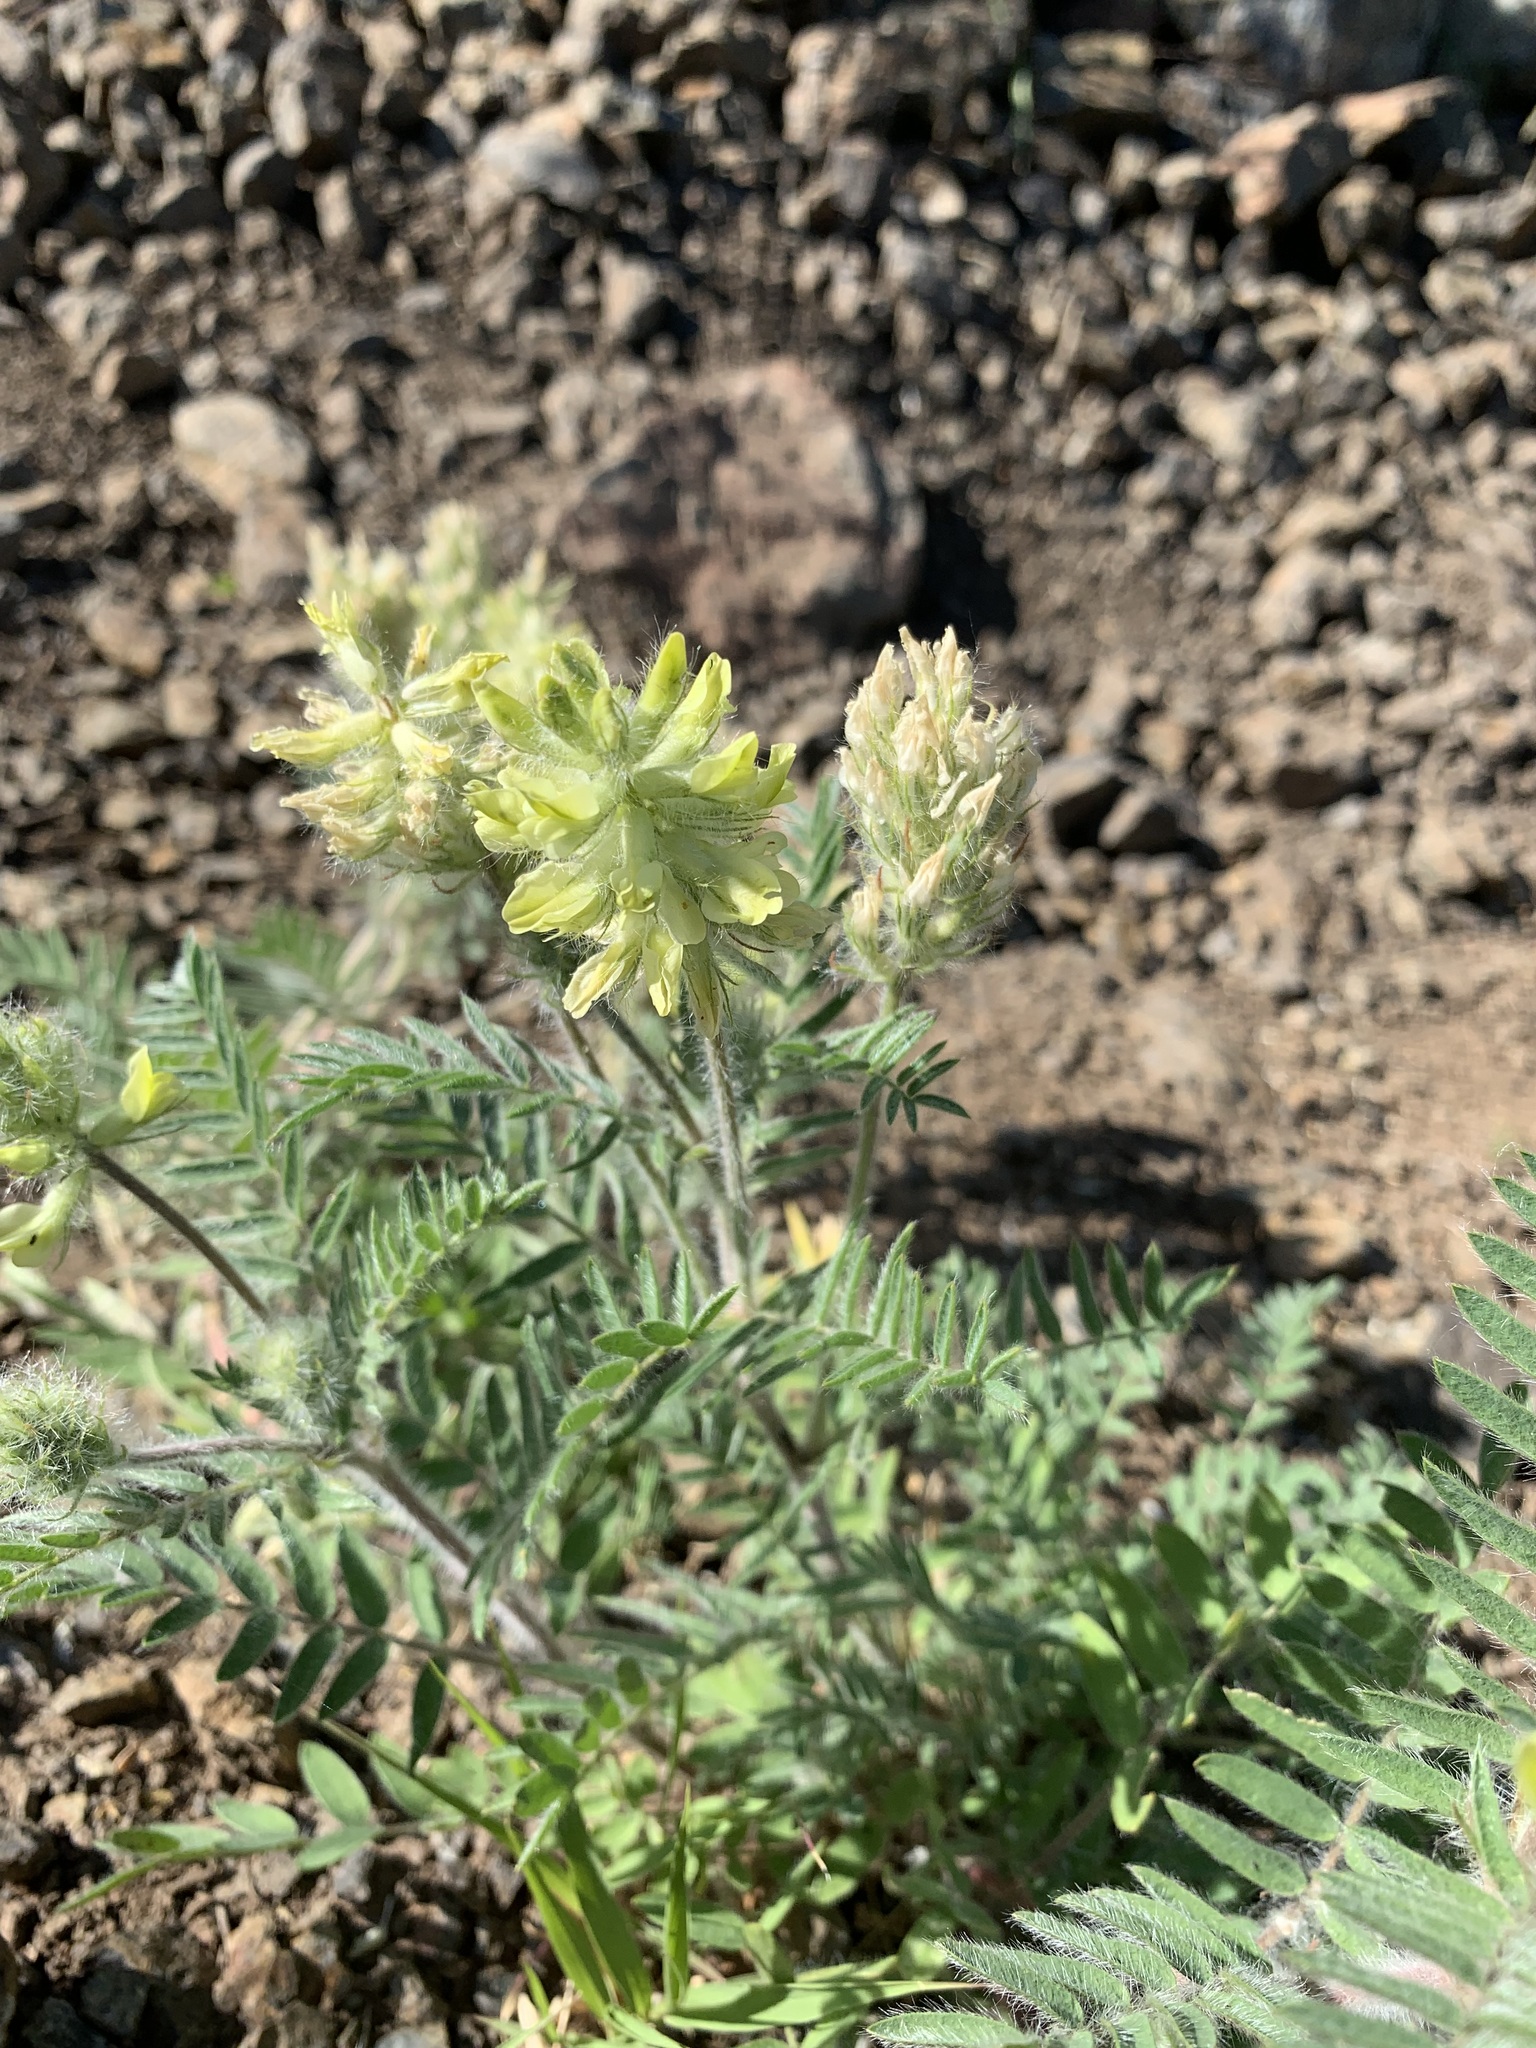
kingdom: Plantae
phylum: Tracheophyta
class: Magnoliopsida
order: Fabales
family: Fabaceae
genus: Oxytropis
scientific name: Oxytropis pilosa
